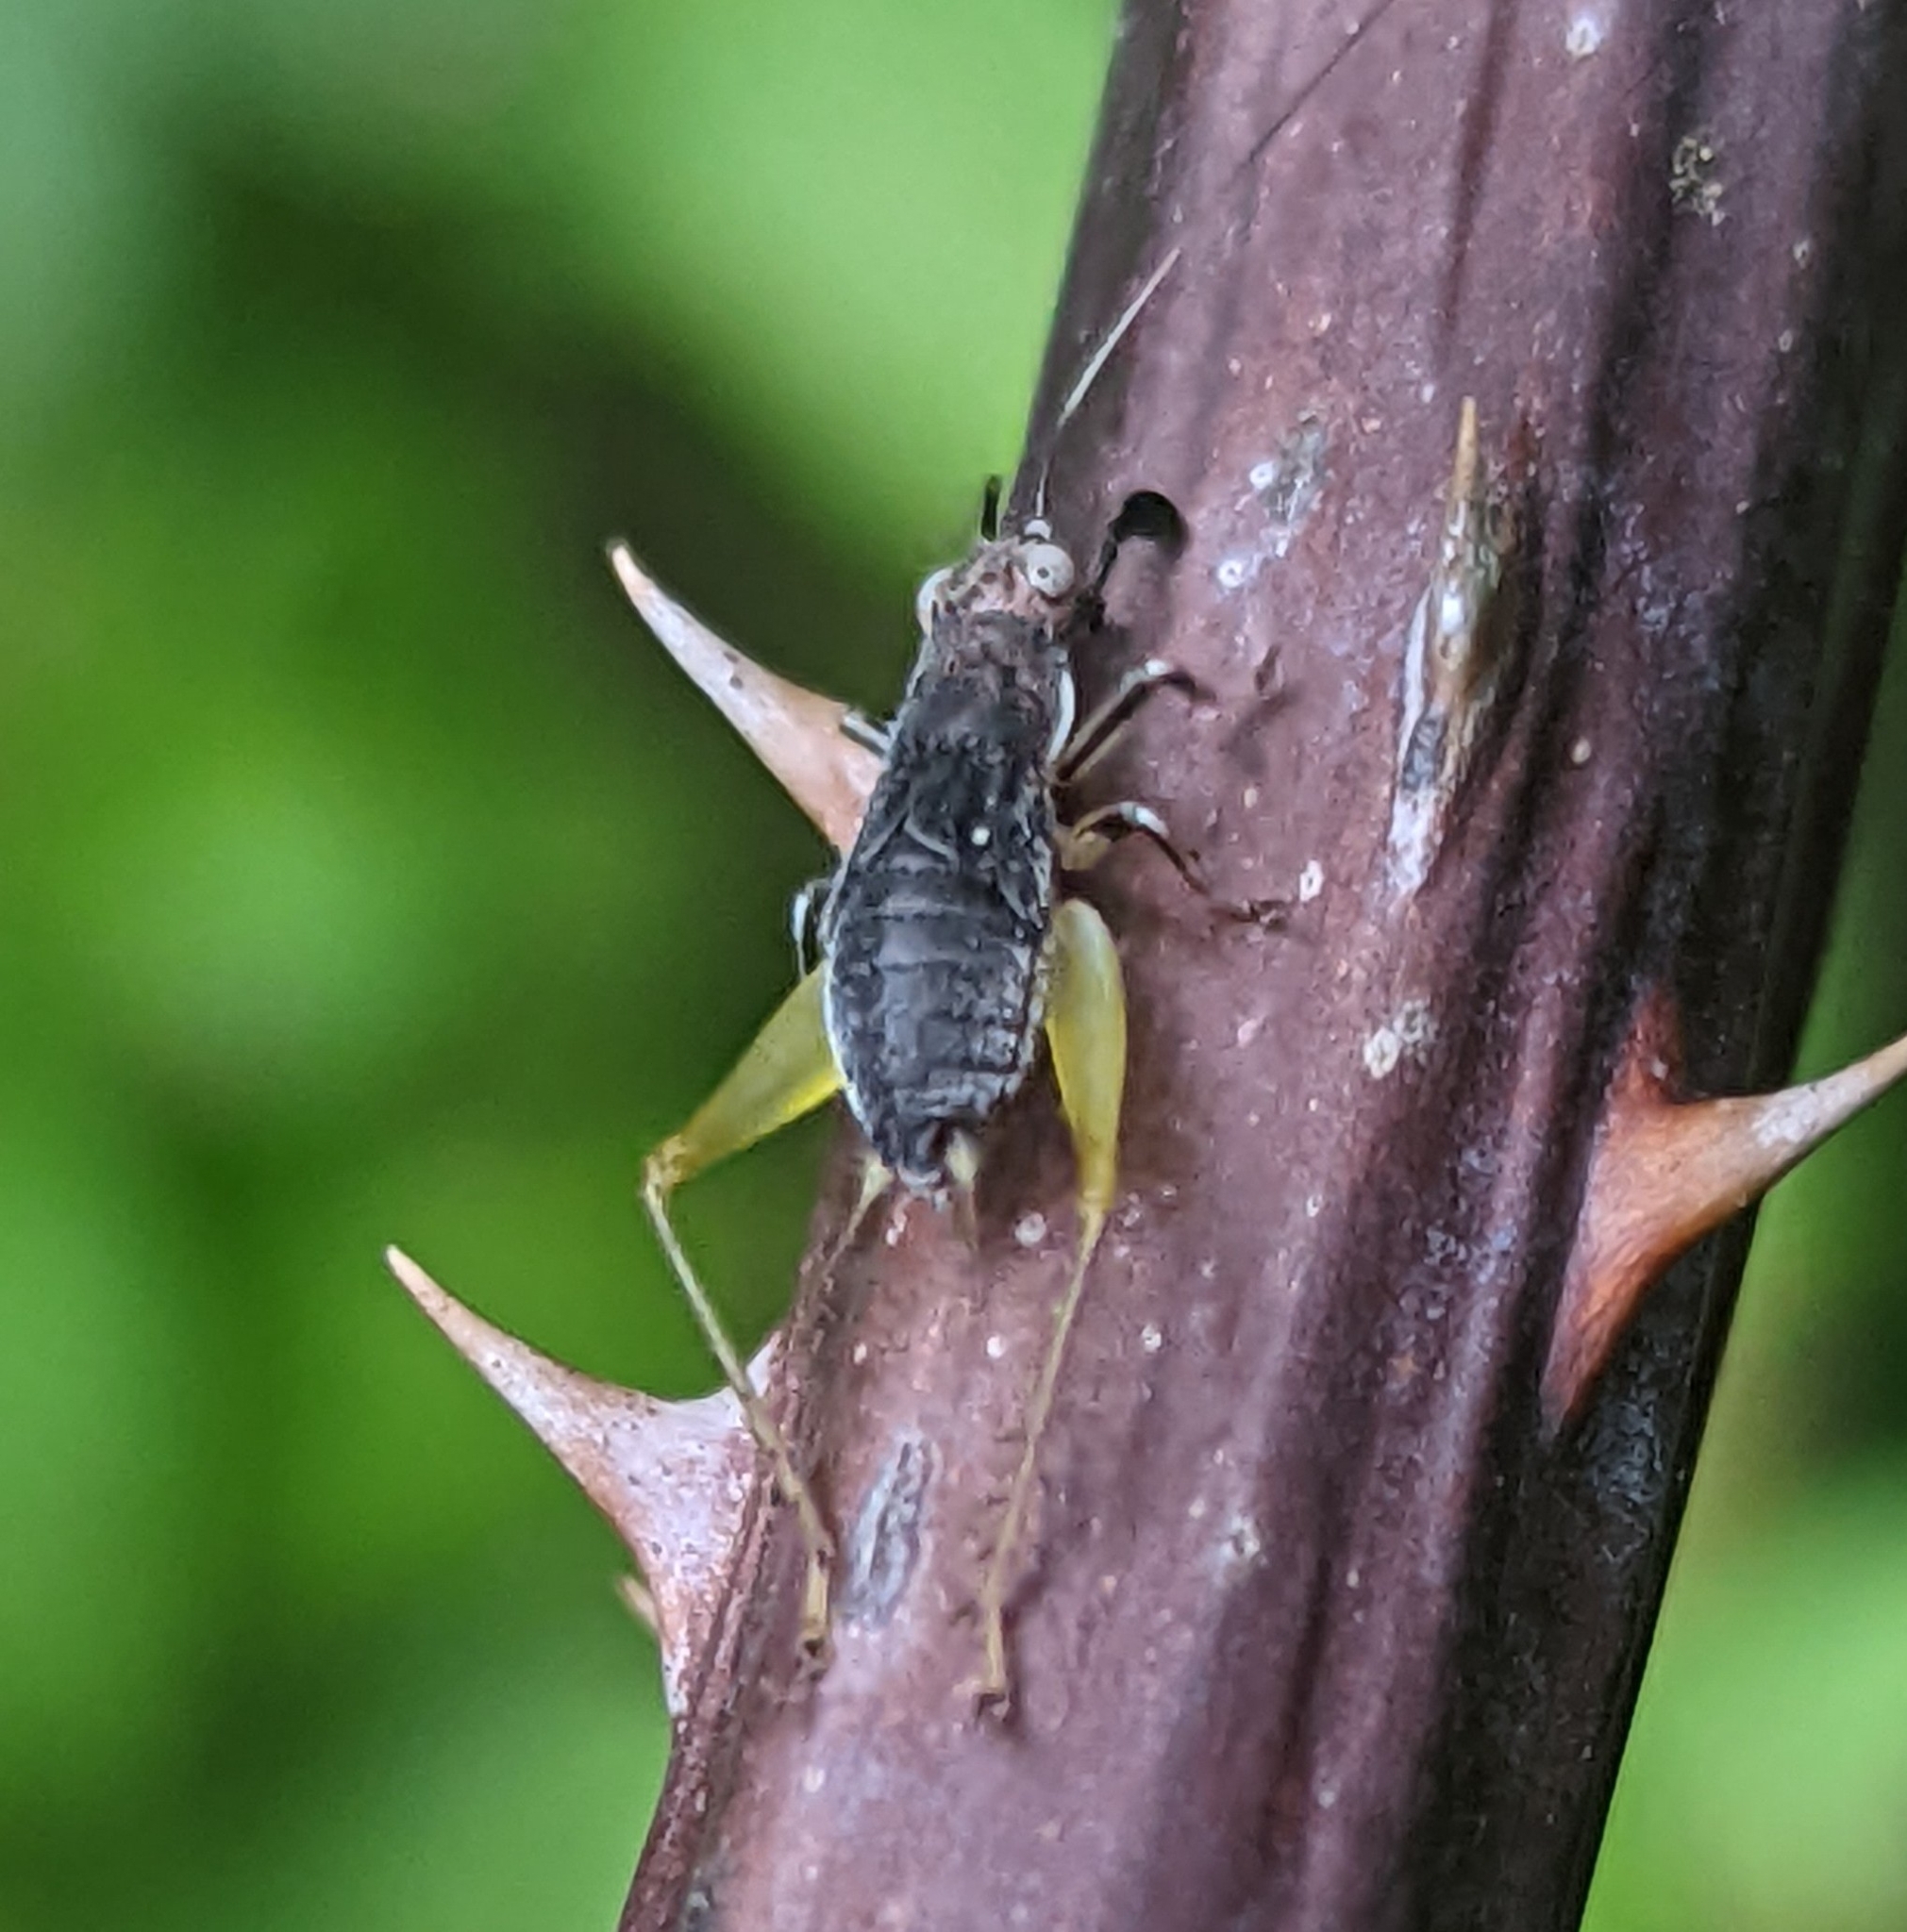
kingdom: Animalia
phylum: Arthropoda
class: Insecta
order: Orthoptera
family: Trigonidiidae
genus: Phyllopalpus
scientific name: Phyllopalpus pulchellus
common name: Handsome trig
